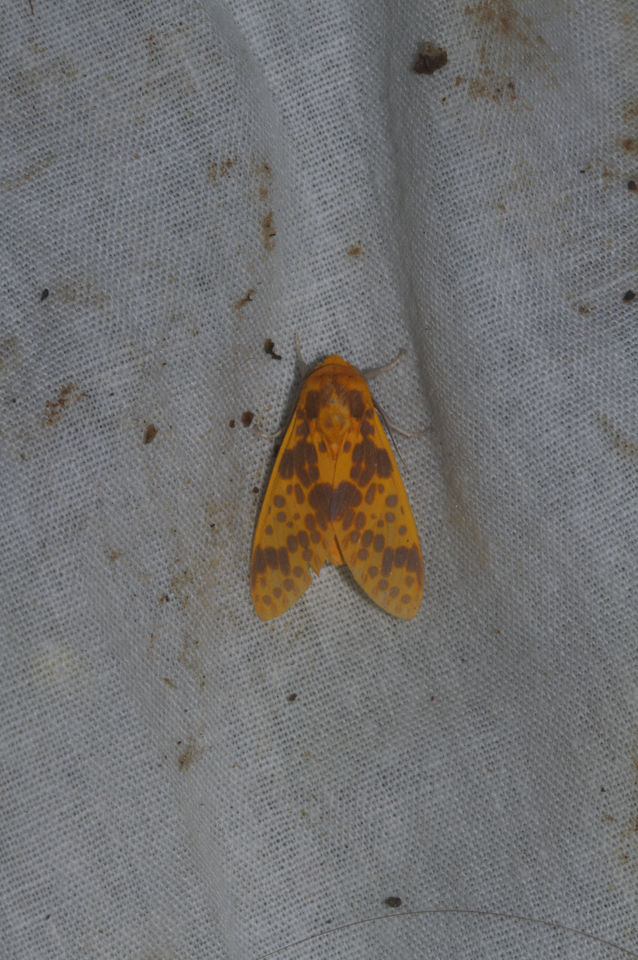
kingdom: Animalia
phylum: Arthropoda
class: Insecta
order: Lepidoptera
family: Erebidae
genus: Symphlebia
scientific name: Symphlebia neja
